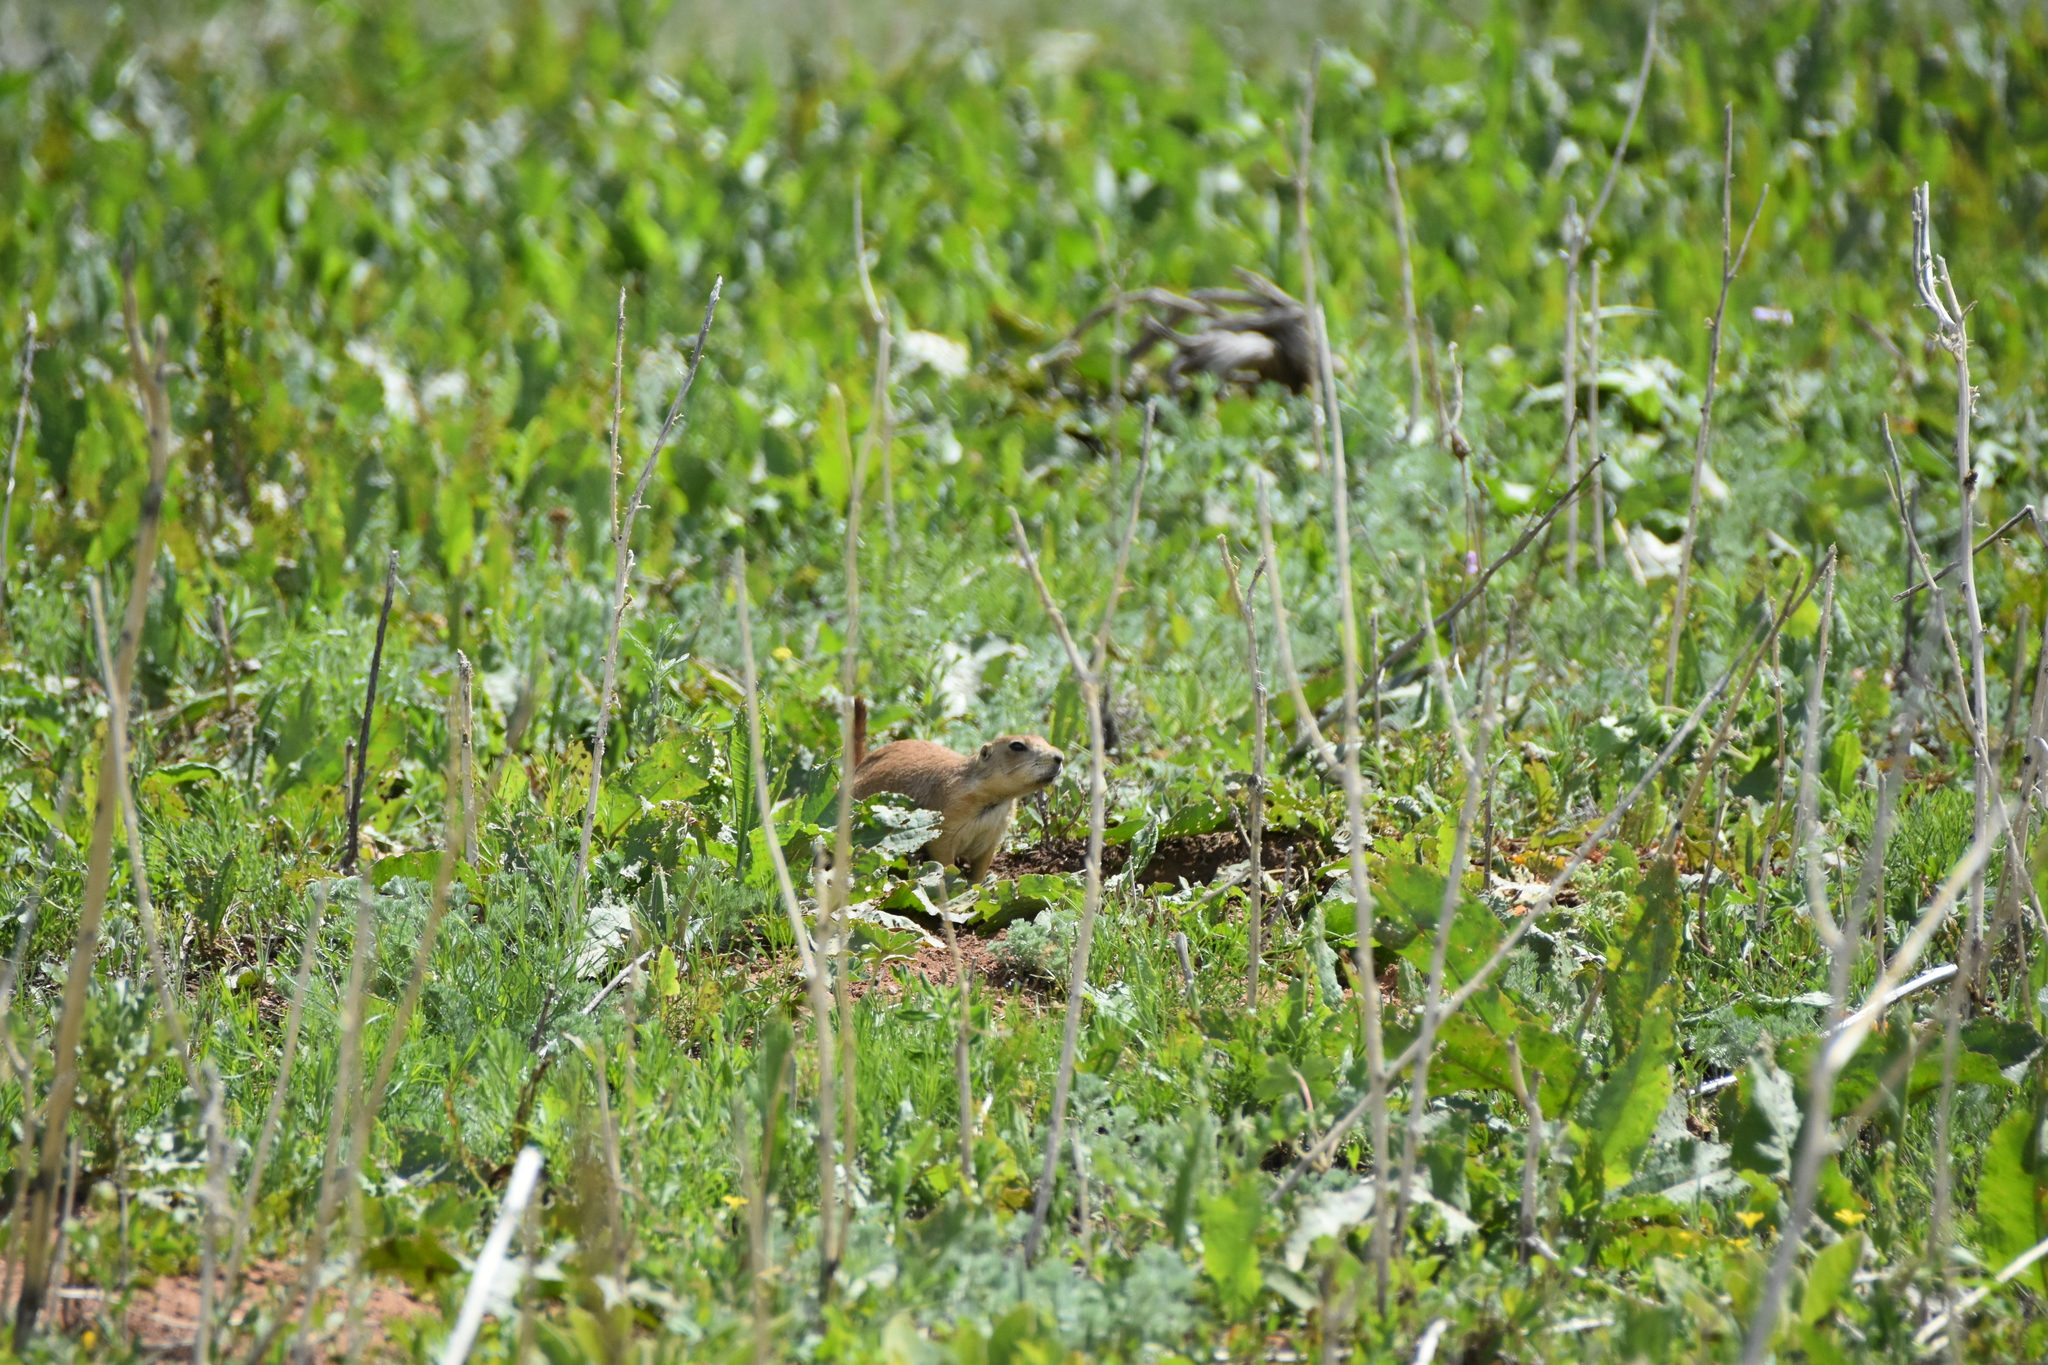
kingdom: Animalia
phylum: Chordata
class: Mammalia
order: Rodentia
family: Sciuridae
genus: Cynomys
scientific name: Cynomys ludovicianus
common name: Black-tailed prairie dog
